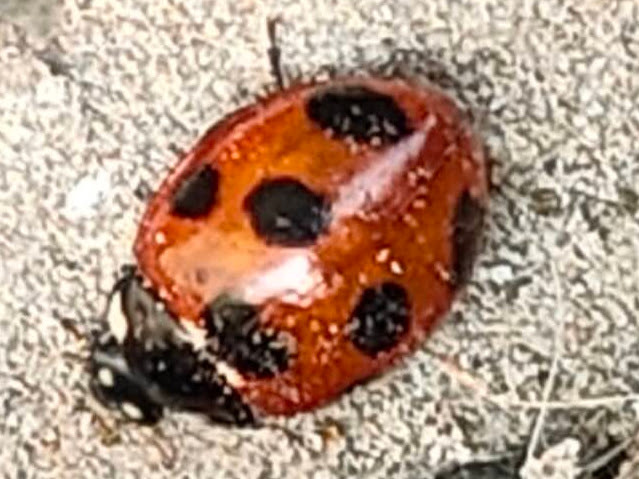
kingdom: Animalia
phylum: Arthropoda
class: Insecta
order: Coleoptera
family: Coccinellidae
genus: Coccinella
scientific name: Coccinella septempunctata
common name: Sevenspotted lady beetle
